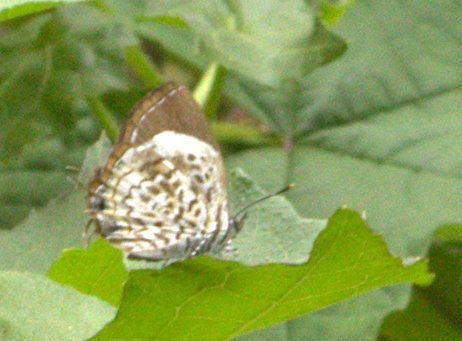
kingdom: Animalia
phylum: Arthropoda
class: Insecta
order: Lepidoptera
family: Lycaenidae
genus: Rathinda
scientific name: Rathinda amor
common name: Monkey puzzle
